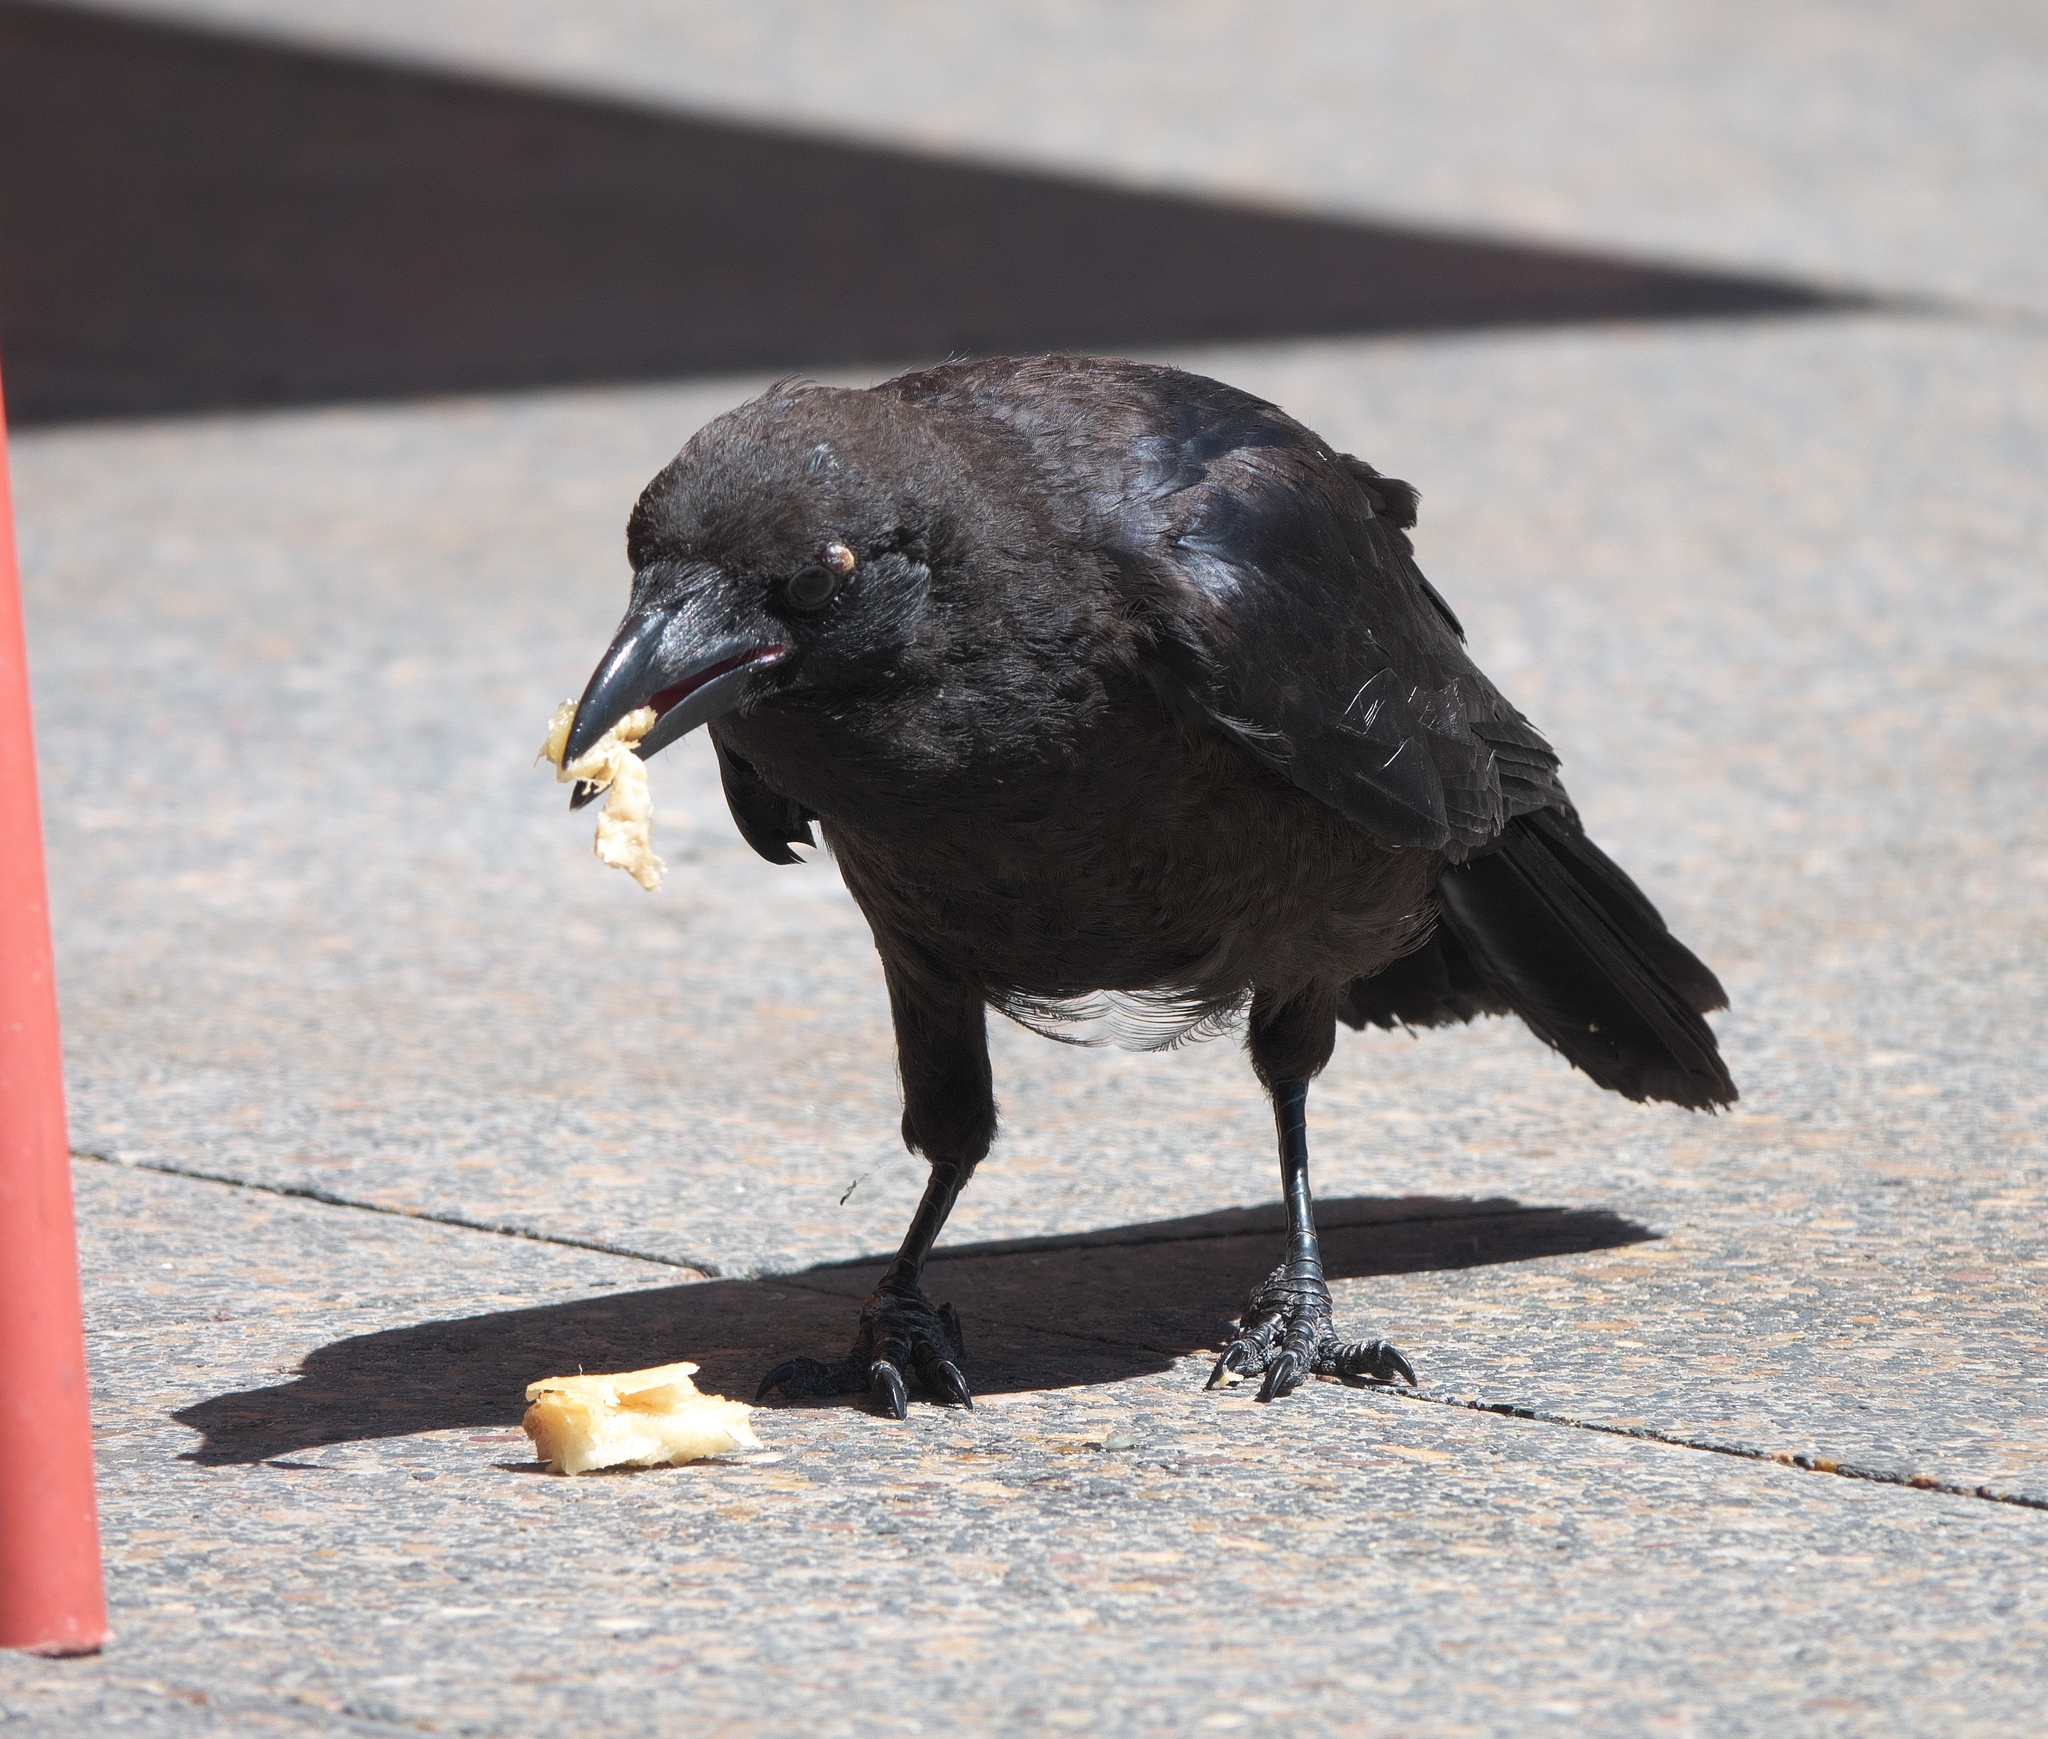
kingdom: Animalia
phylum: Chordata
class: Aves
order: Passeriformes
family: Corvidae
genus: Corvus
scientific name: Corvus coronoides
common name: Australian raven
